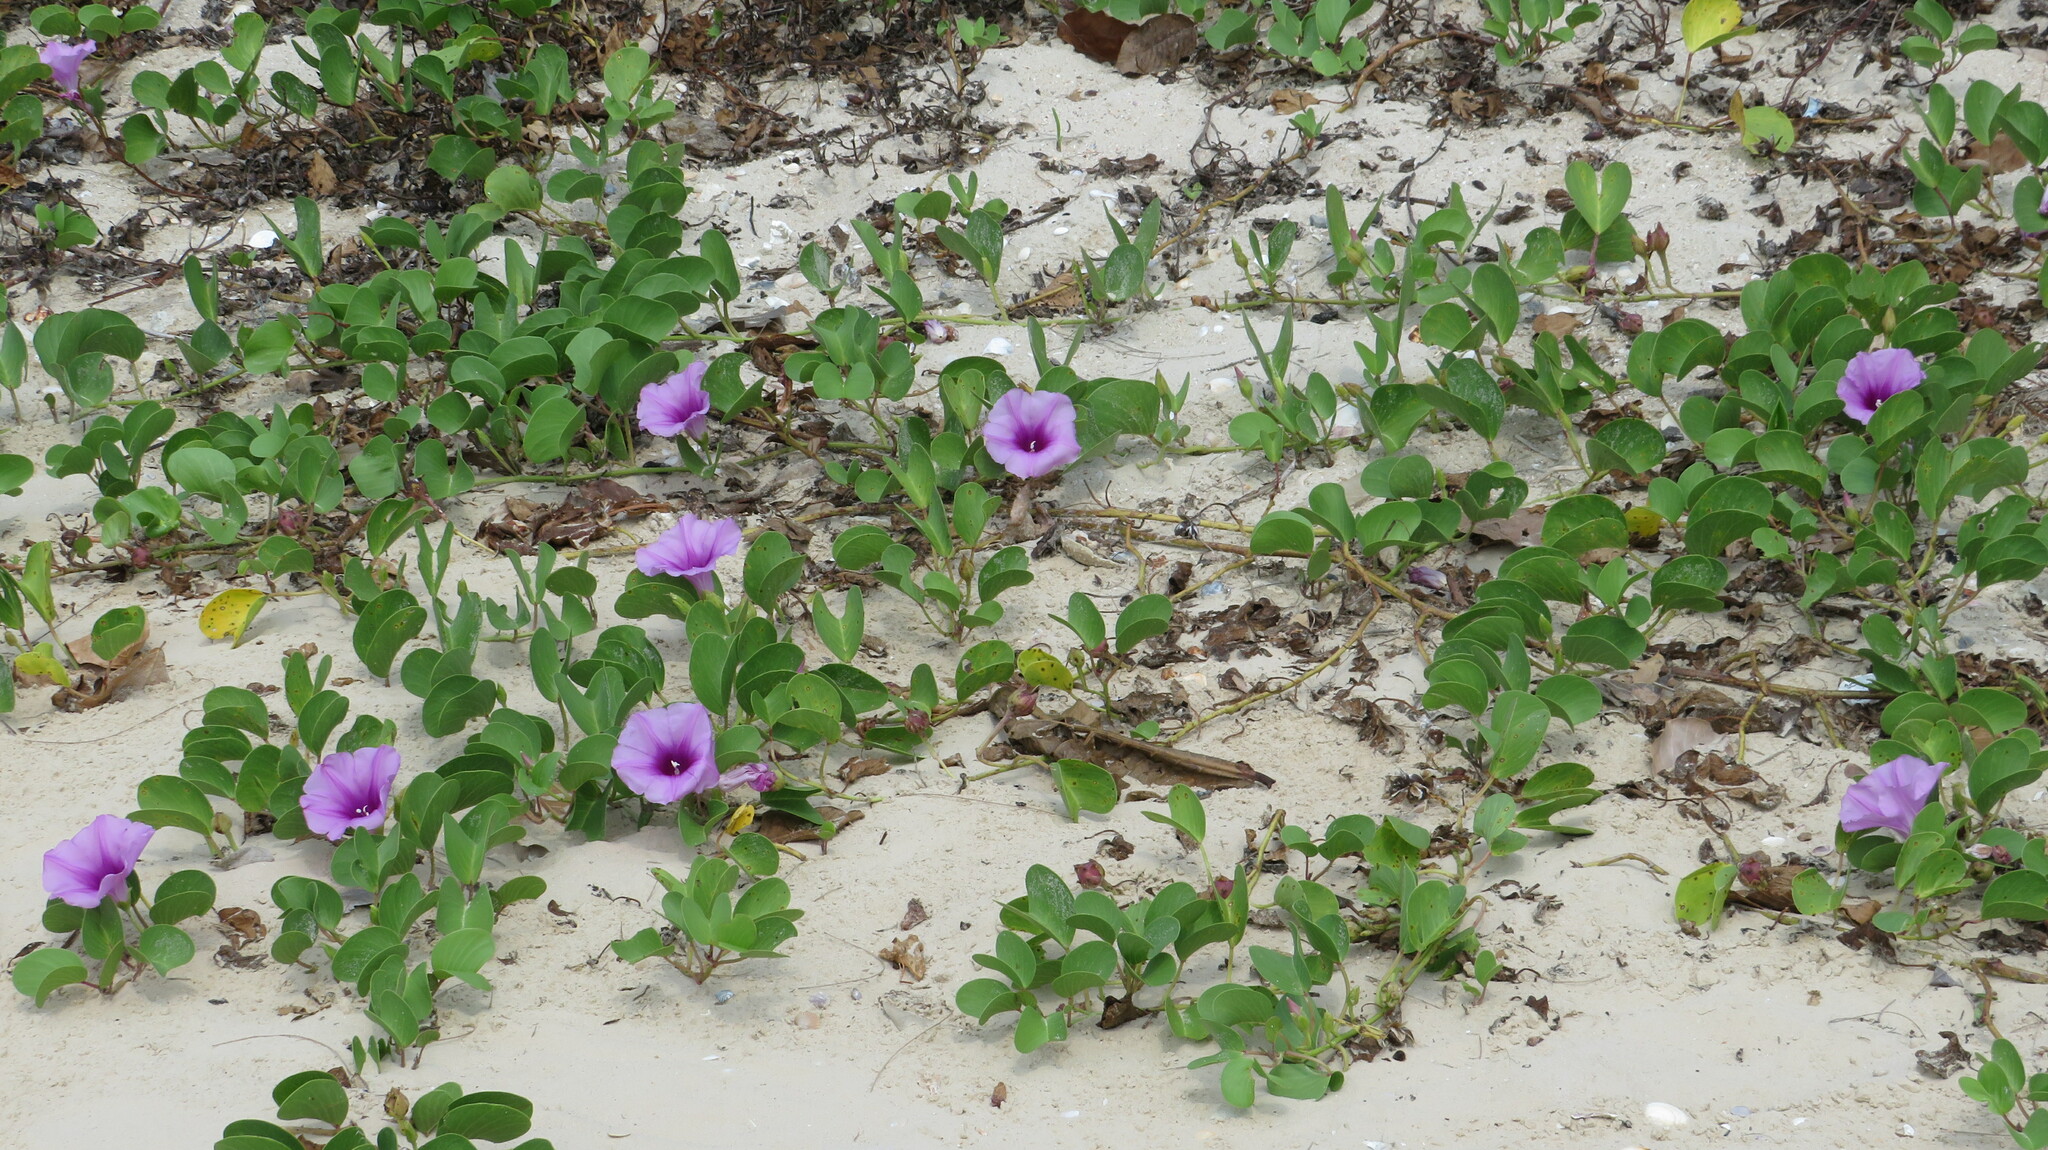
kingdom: Plantae
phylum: Tracheophyta
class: Magnoliopsida
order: Solanales
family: Convolvulaceae
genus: Ipomoea
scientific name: Ipomoea pes-caprae
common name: Beach morning glory
